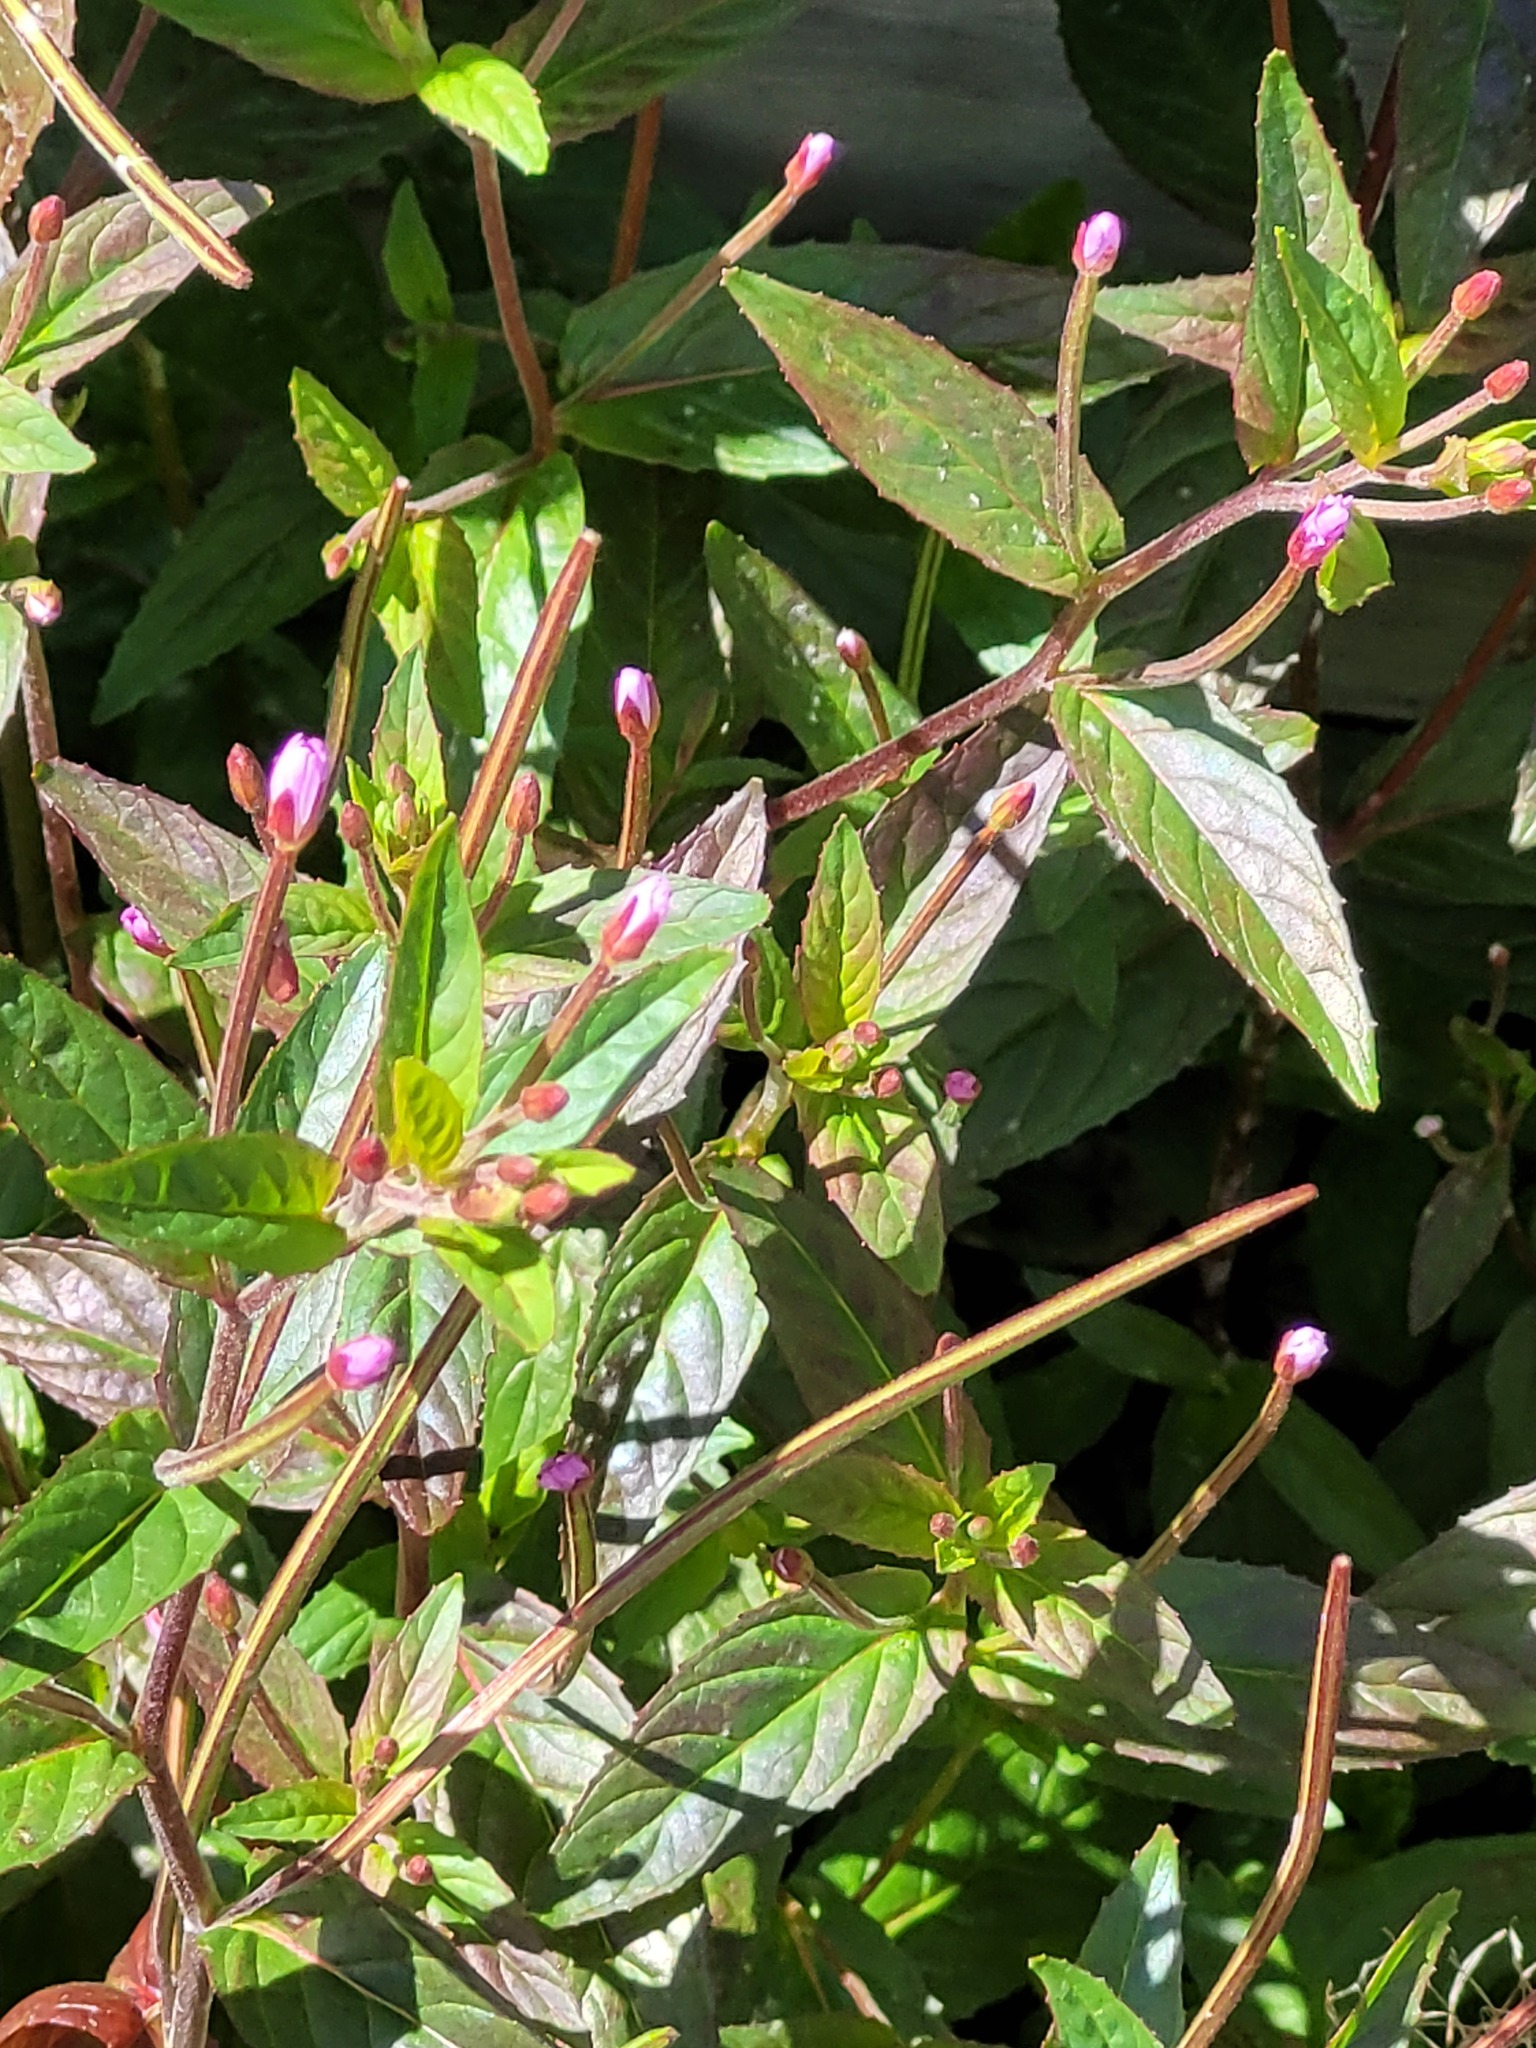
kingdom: Plantae
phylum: Tracheophyta
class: Magnoliopsida
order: Myrtales
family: Onagraceae
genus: Epilobium
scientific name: Epilobium ciliatum
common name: American willowherb
